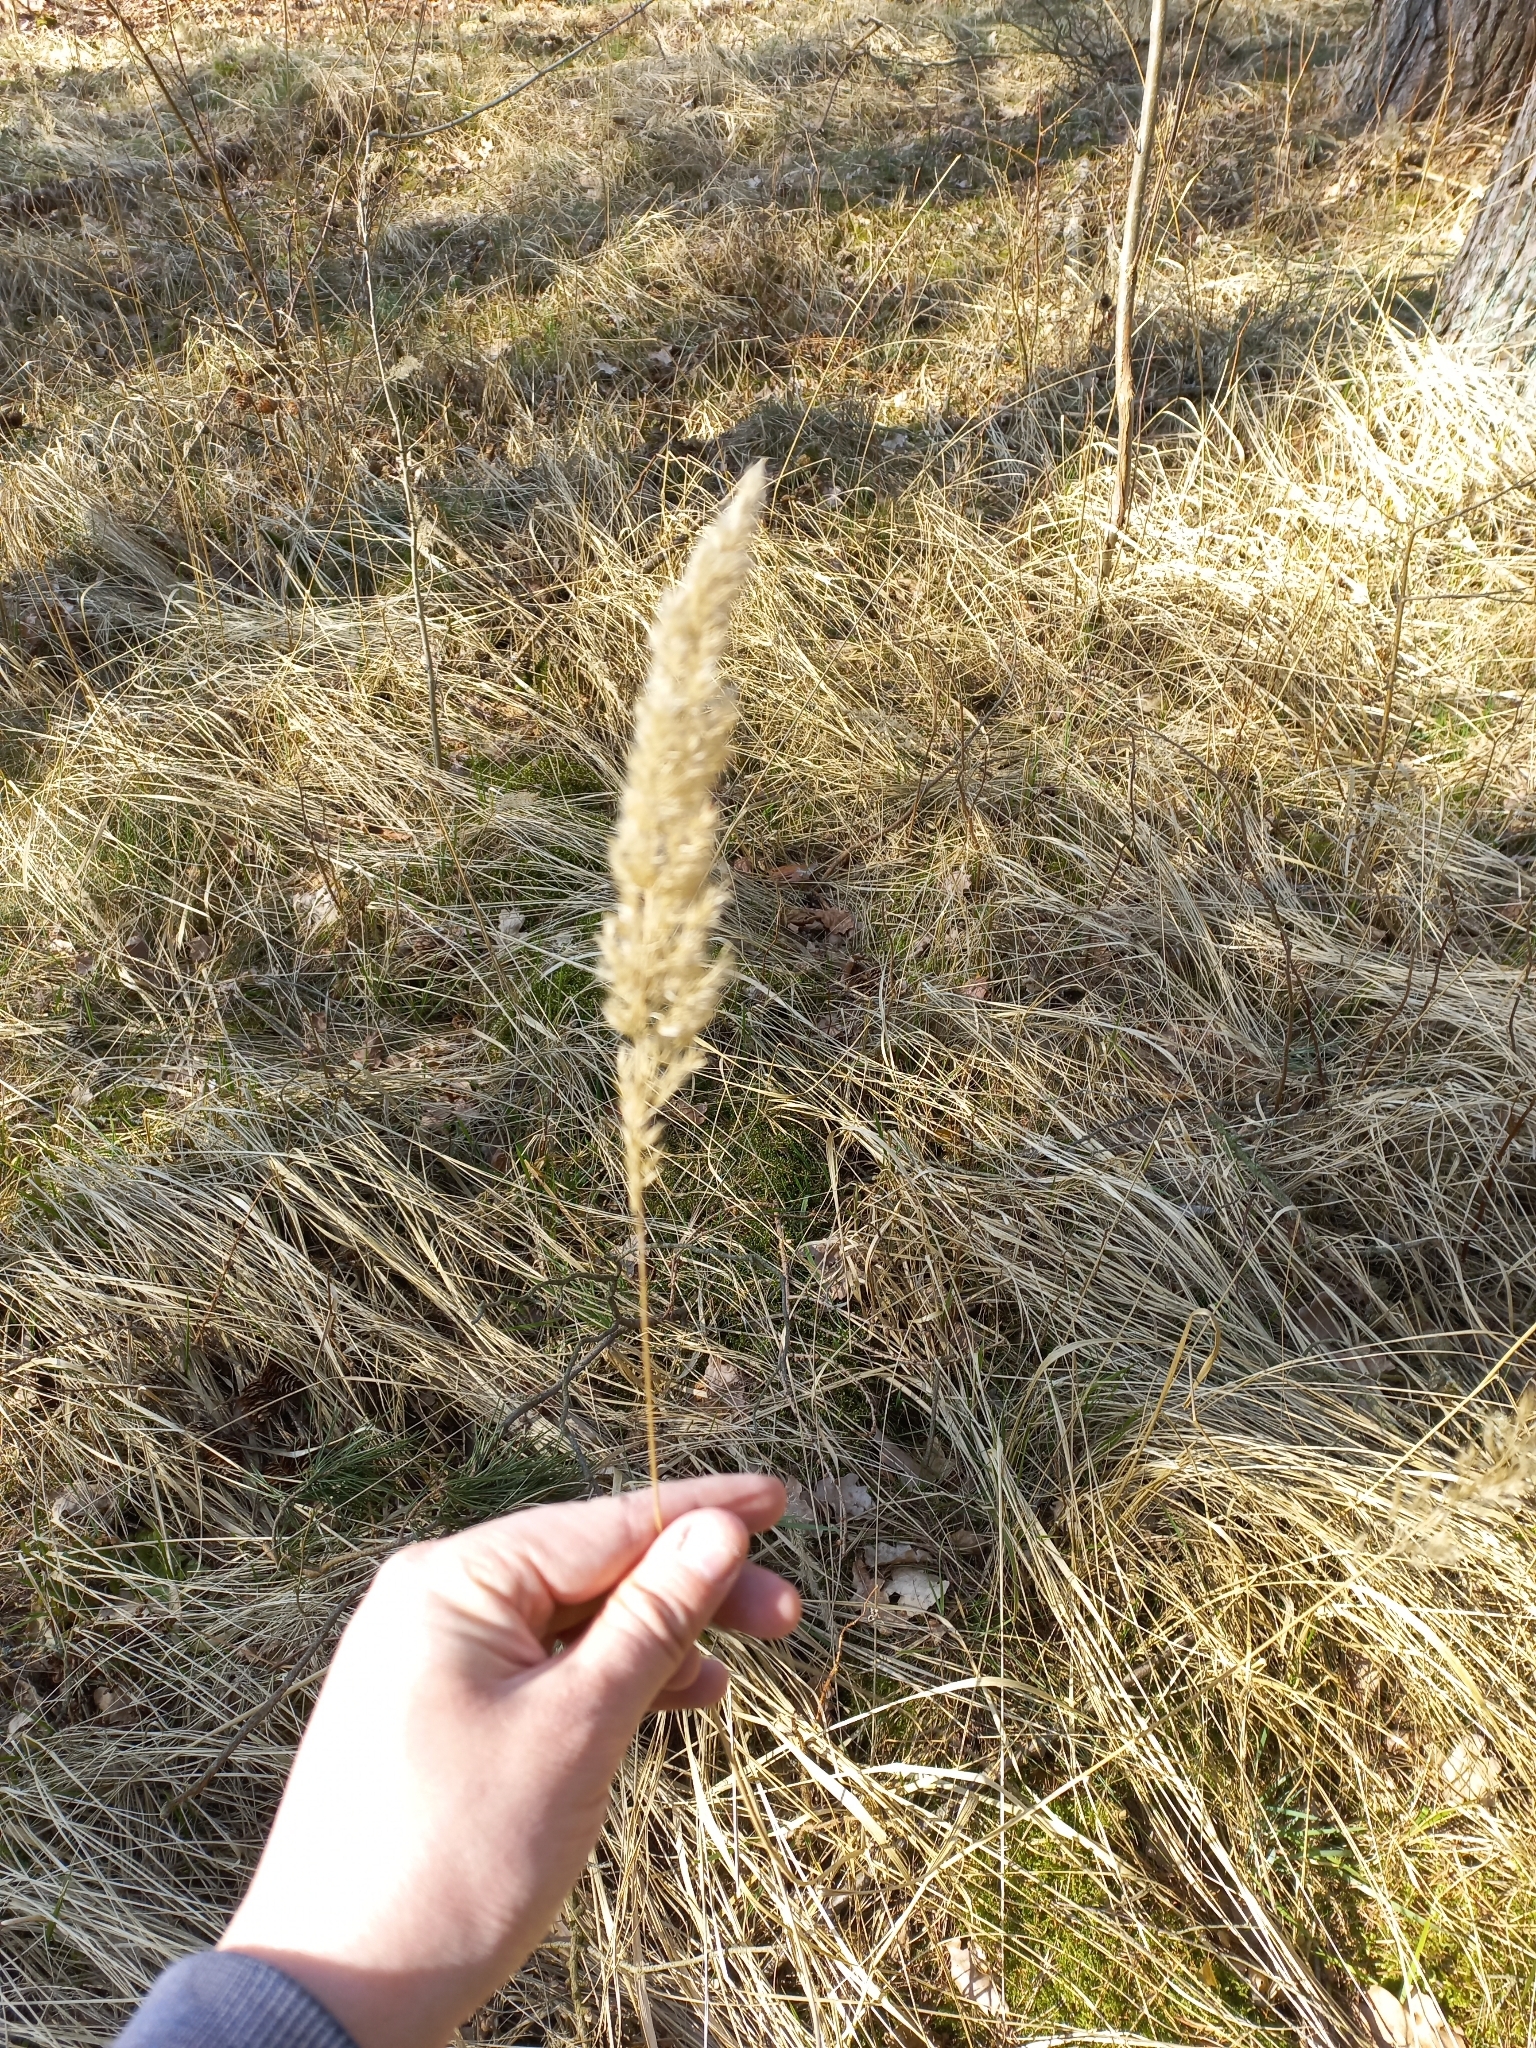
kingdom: Plantae
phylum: Tracheophyta
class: Liliopsida
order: Poales
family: Poaceae
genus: Calamagrostis
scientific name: Calamagrostis epigejos
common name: Wood small-reed
